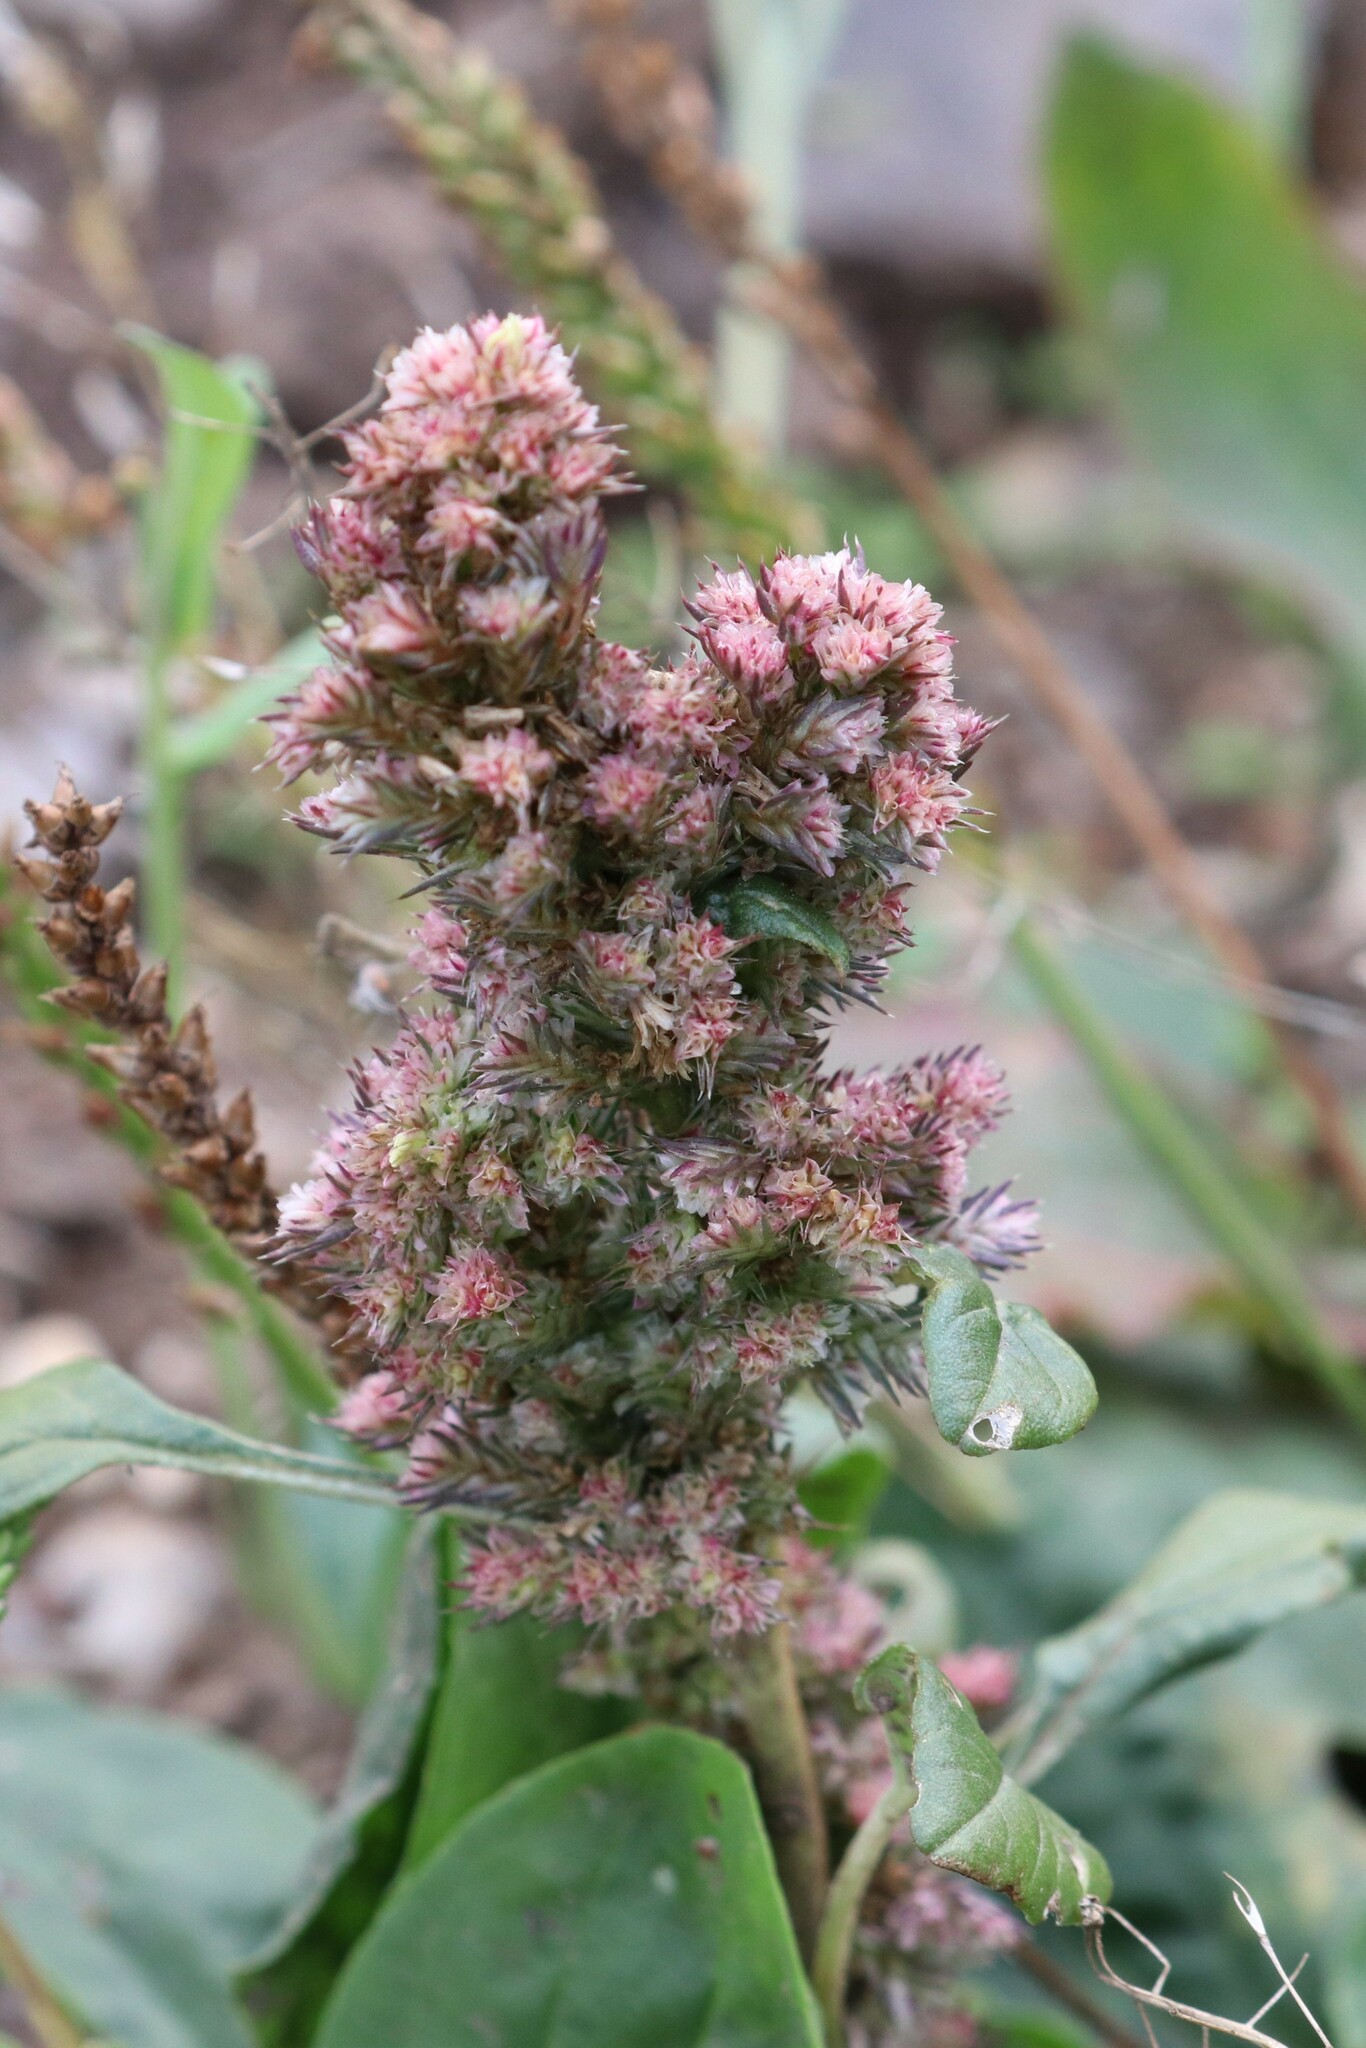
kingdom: Plantae
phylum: Tracheophyta
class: Magnoliopsida
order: Caryophyllales
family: Amaranthaceae
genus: Amaranthus
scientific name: Amaranthus retroflexus
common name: Redroot amaranth
